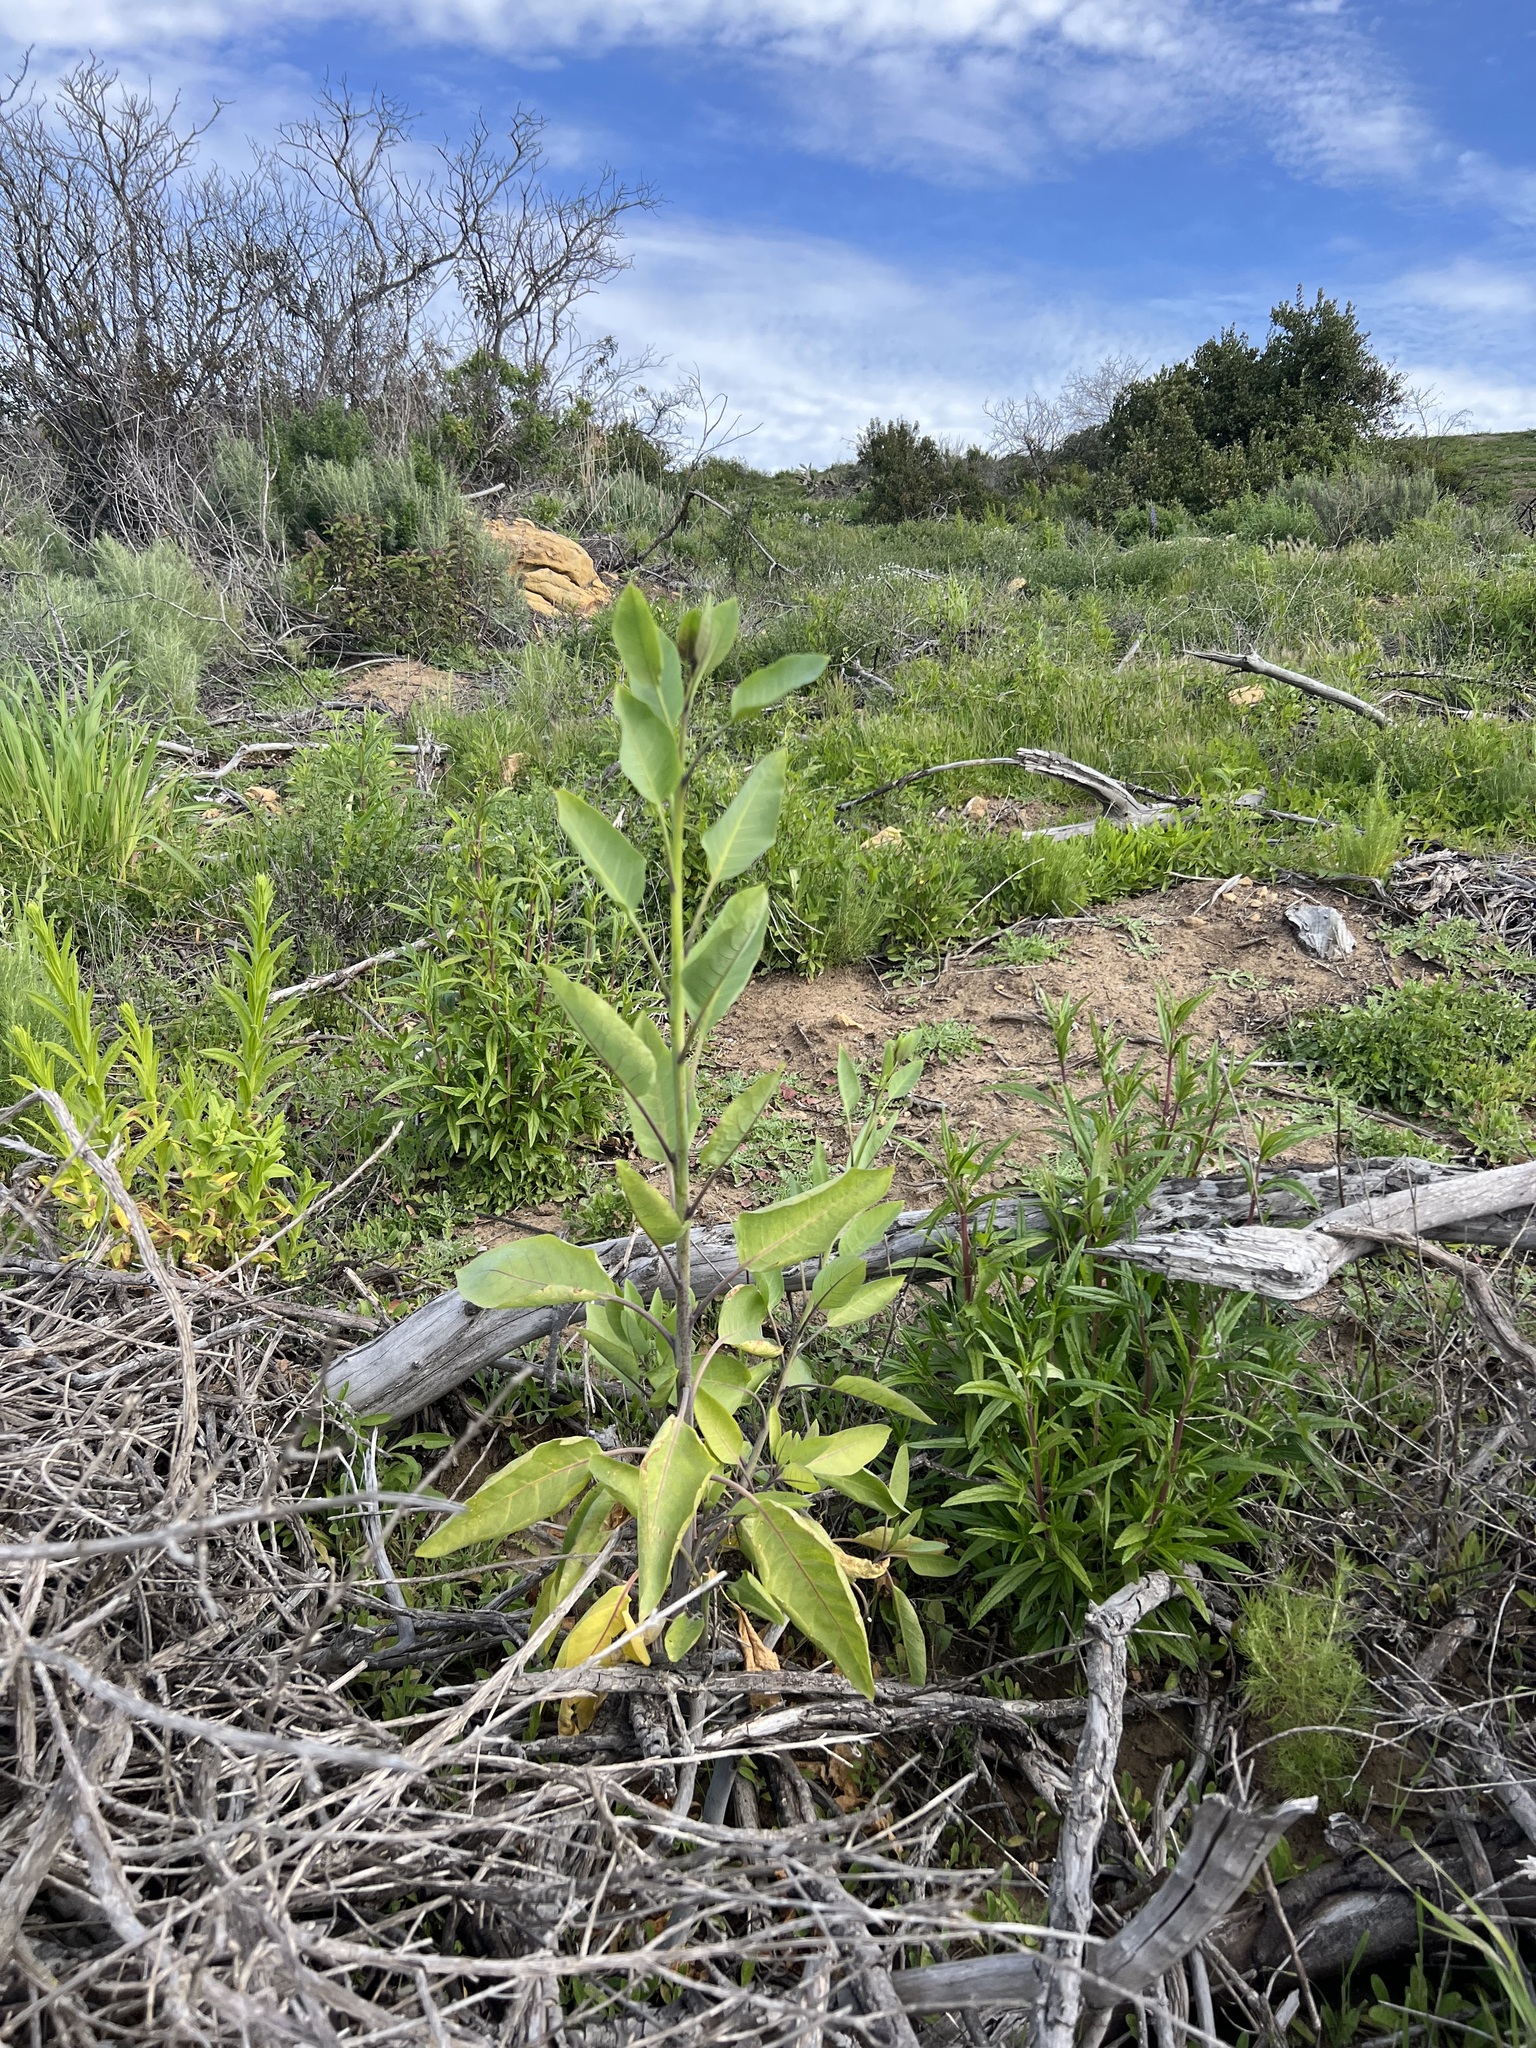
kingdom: Plantae
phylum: Tracheophyta
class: Magnoliopsida
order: Solanales
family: Solanaceae
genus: Nicotiana
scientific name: Nicotiana glauca
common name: Tree tobacco
